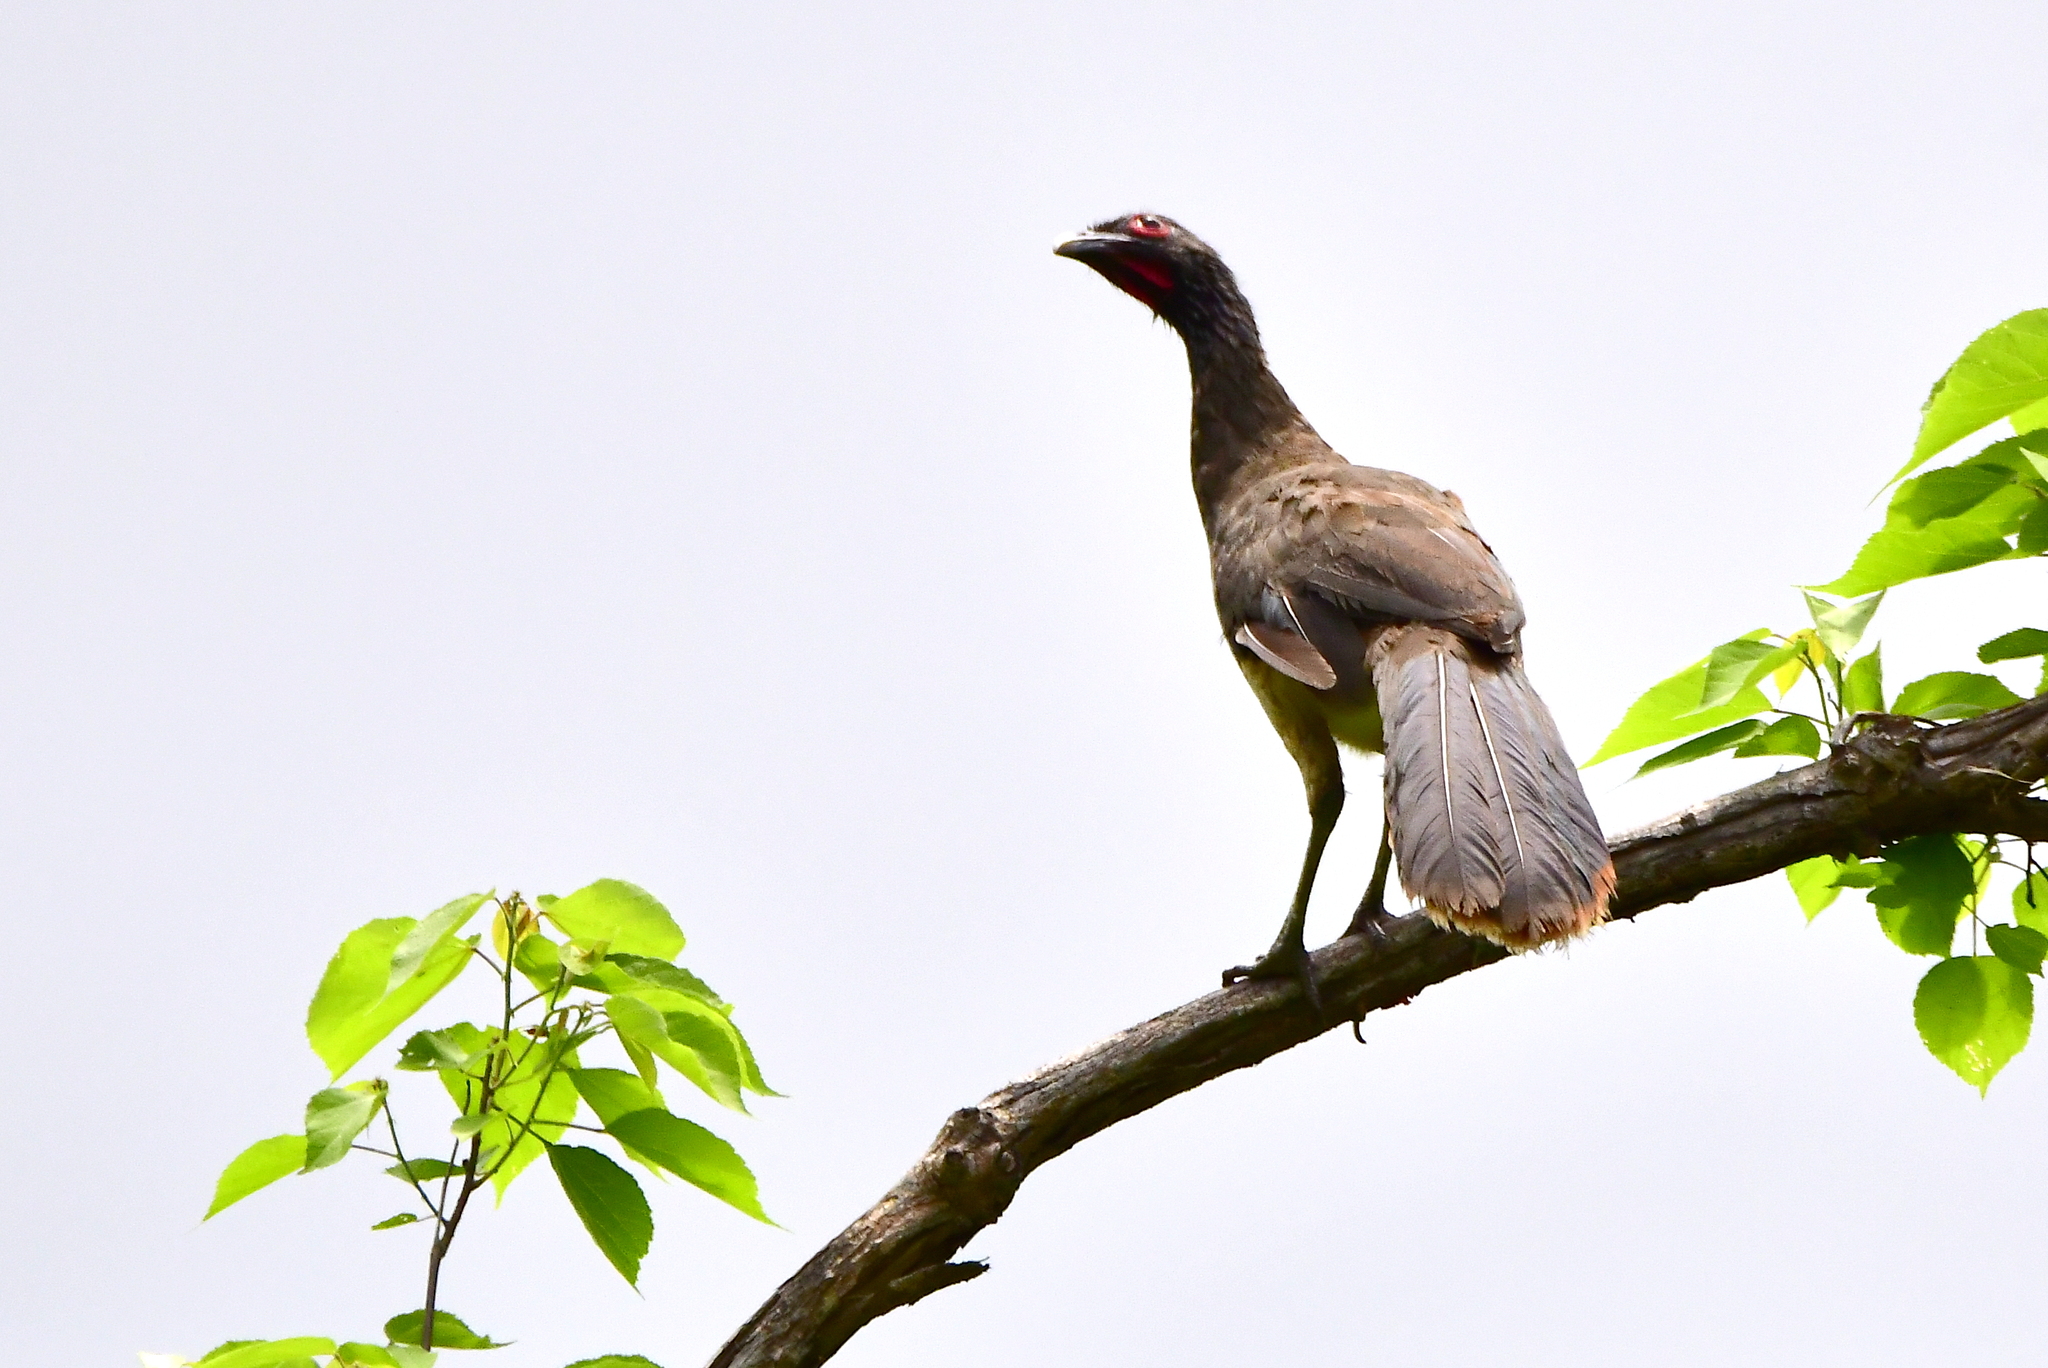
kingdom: Animalia
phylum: Chordata
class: Aves
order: Galliformes
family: Cracidae
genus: Ortalis
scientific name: Ortalis poliocephala
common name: West mexican chachalaca
